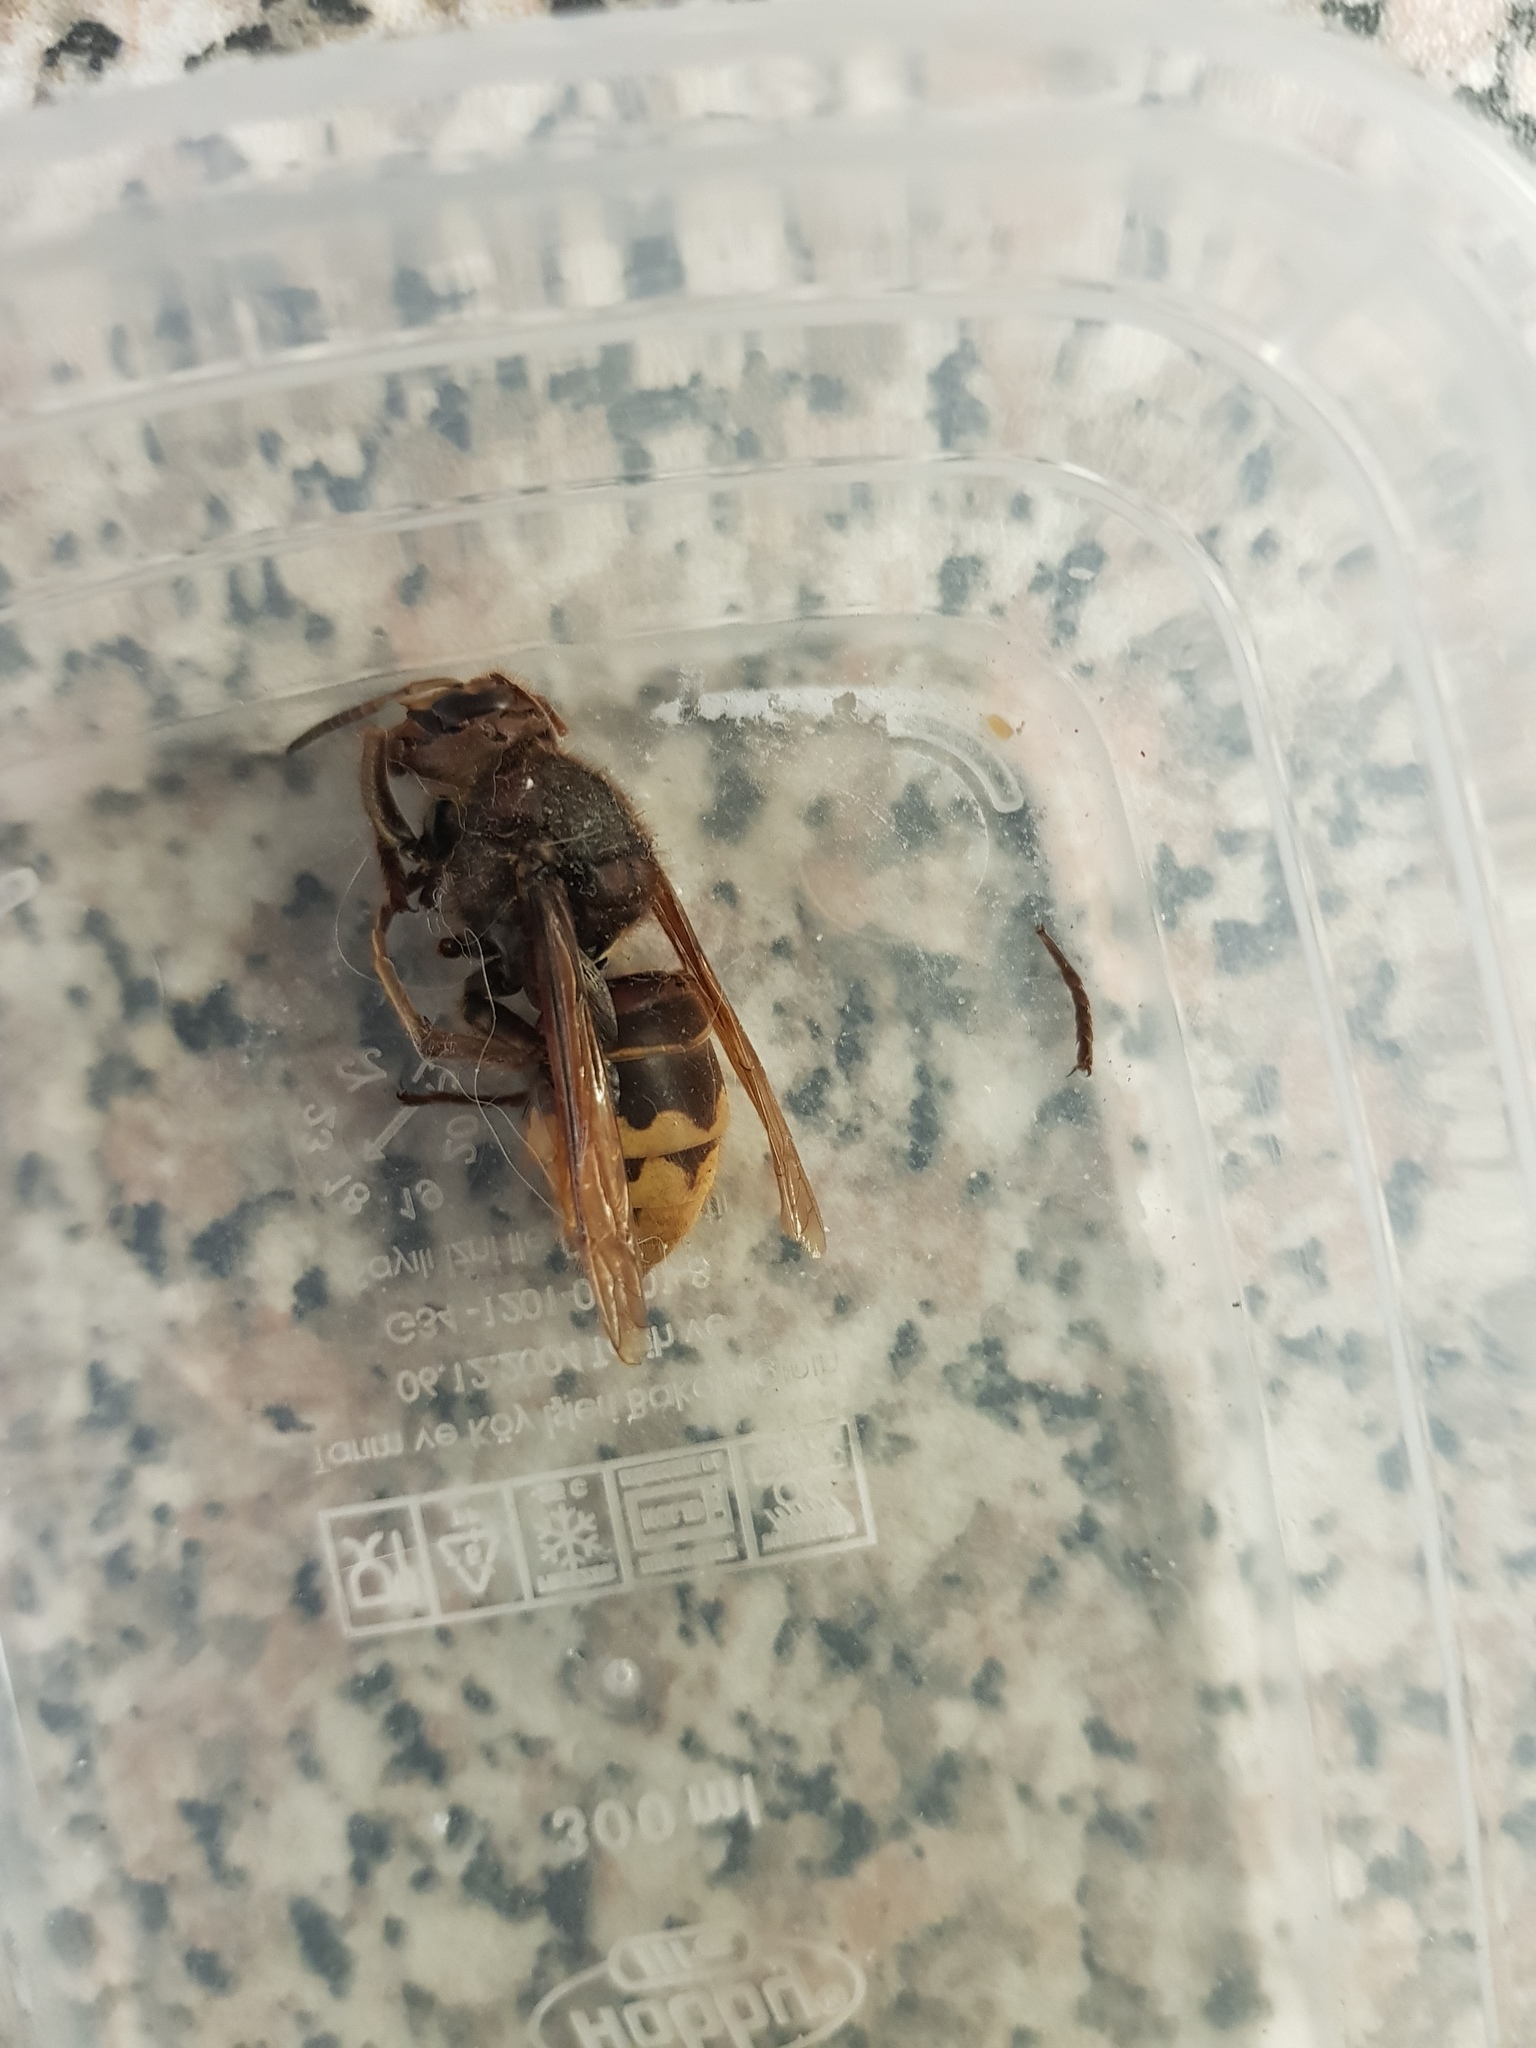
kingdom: Animalia
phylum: Arthropoda
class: Insecta
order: Hymenoptera
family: Vespidae
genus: Vespa
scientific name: Vespa crabro
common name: Hornet
